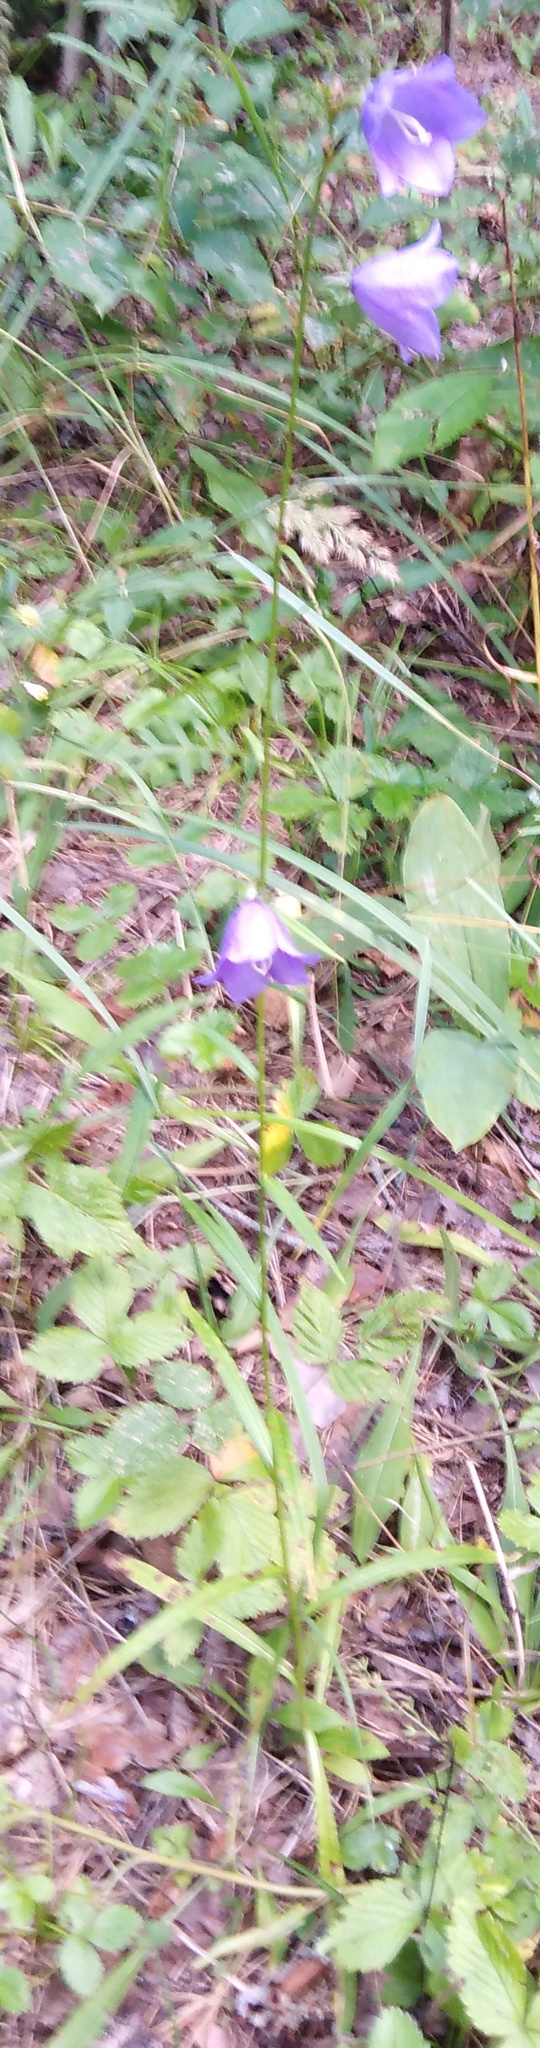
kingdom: Plantae
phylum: Tracheophyta
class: Magnoliopsida
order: Asterales
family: Campanulaceae
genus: Campanula
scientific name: Campanula persicifolia
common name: Peach-leaved bellflower
